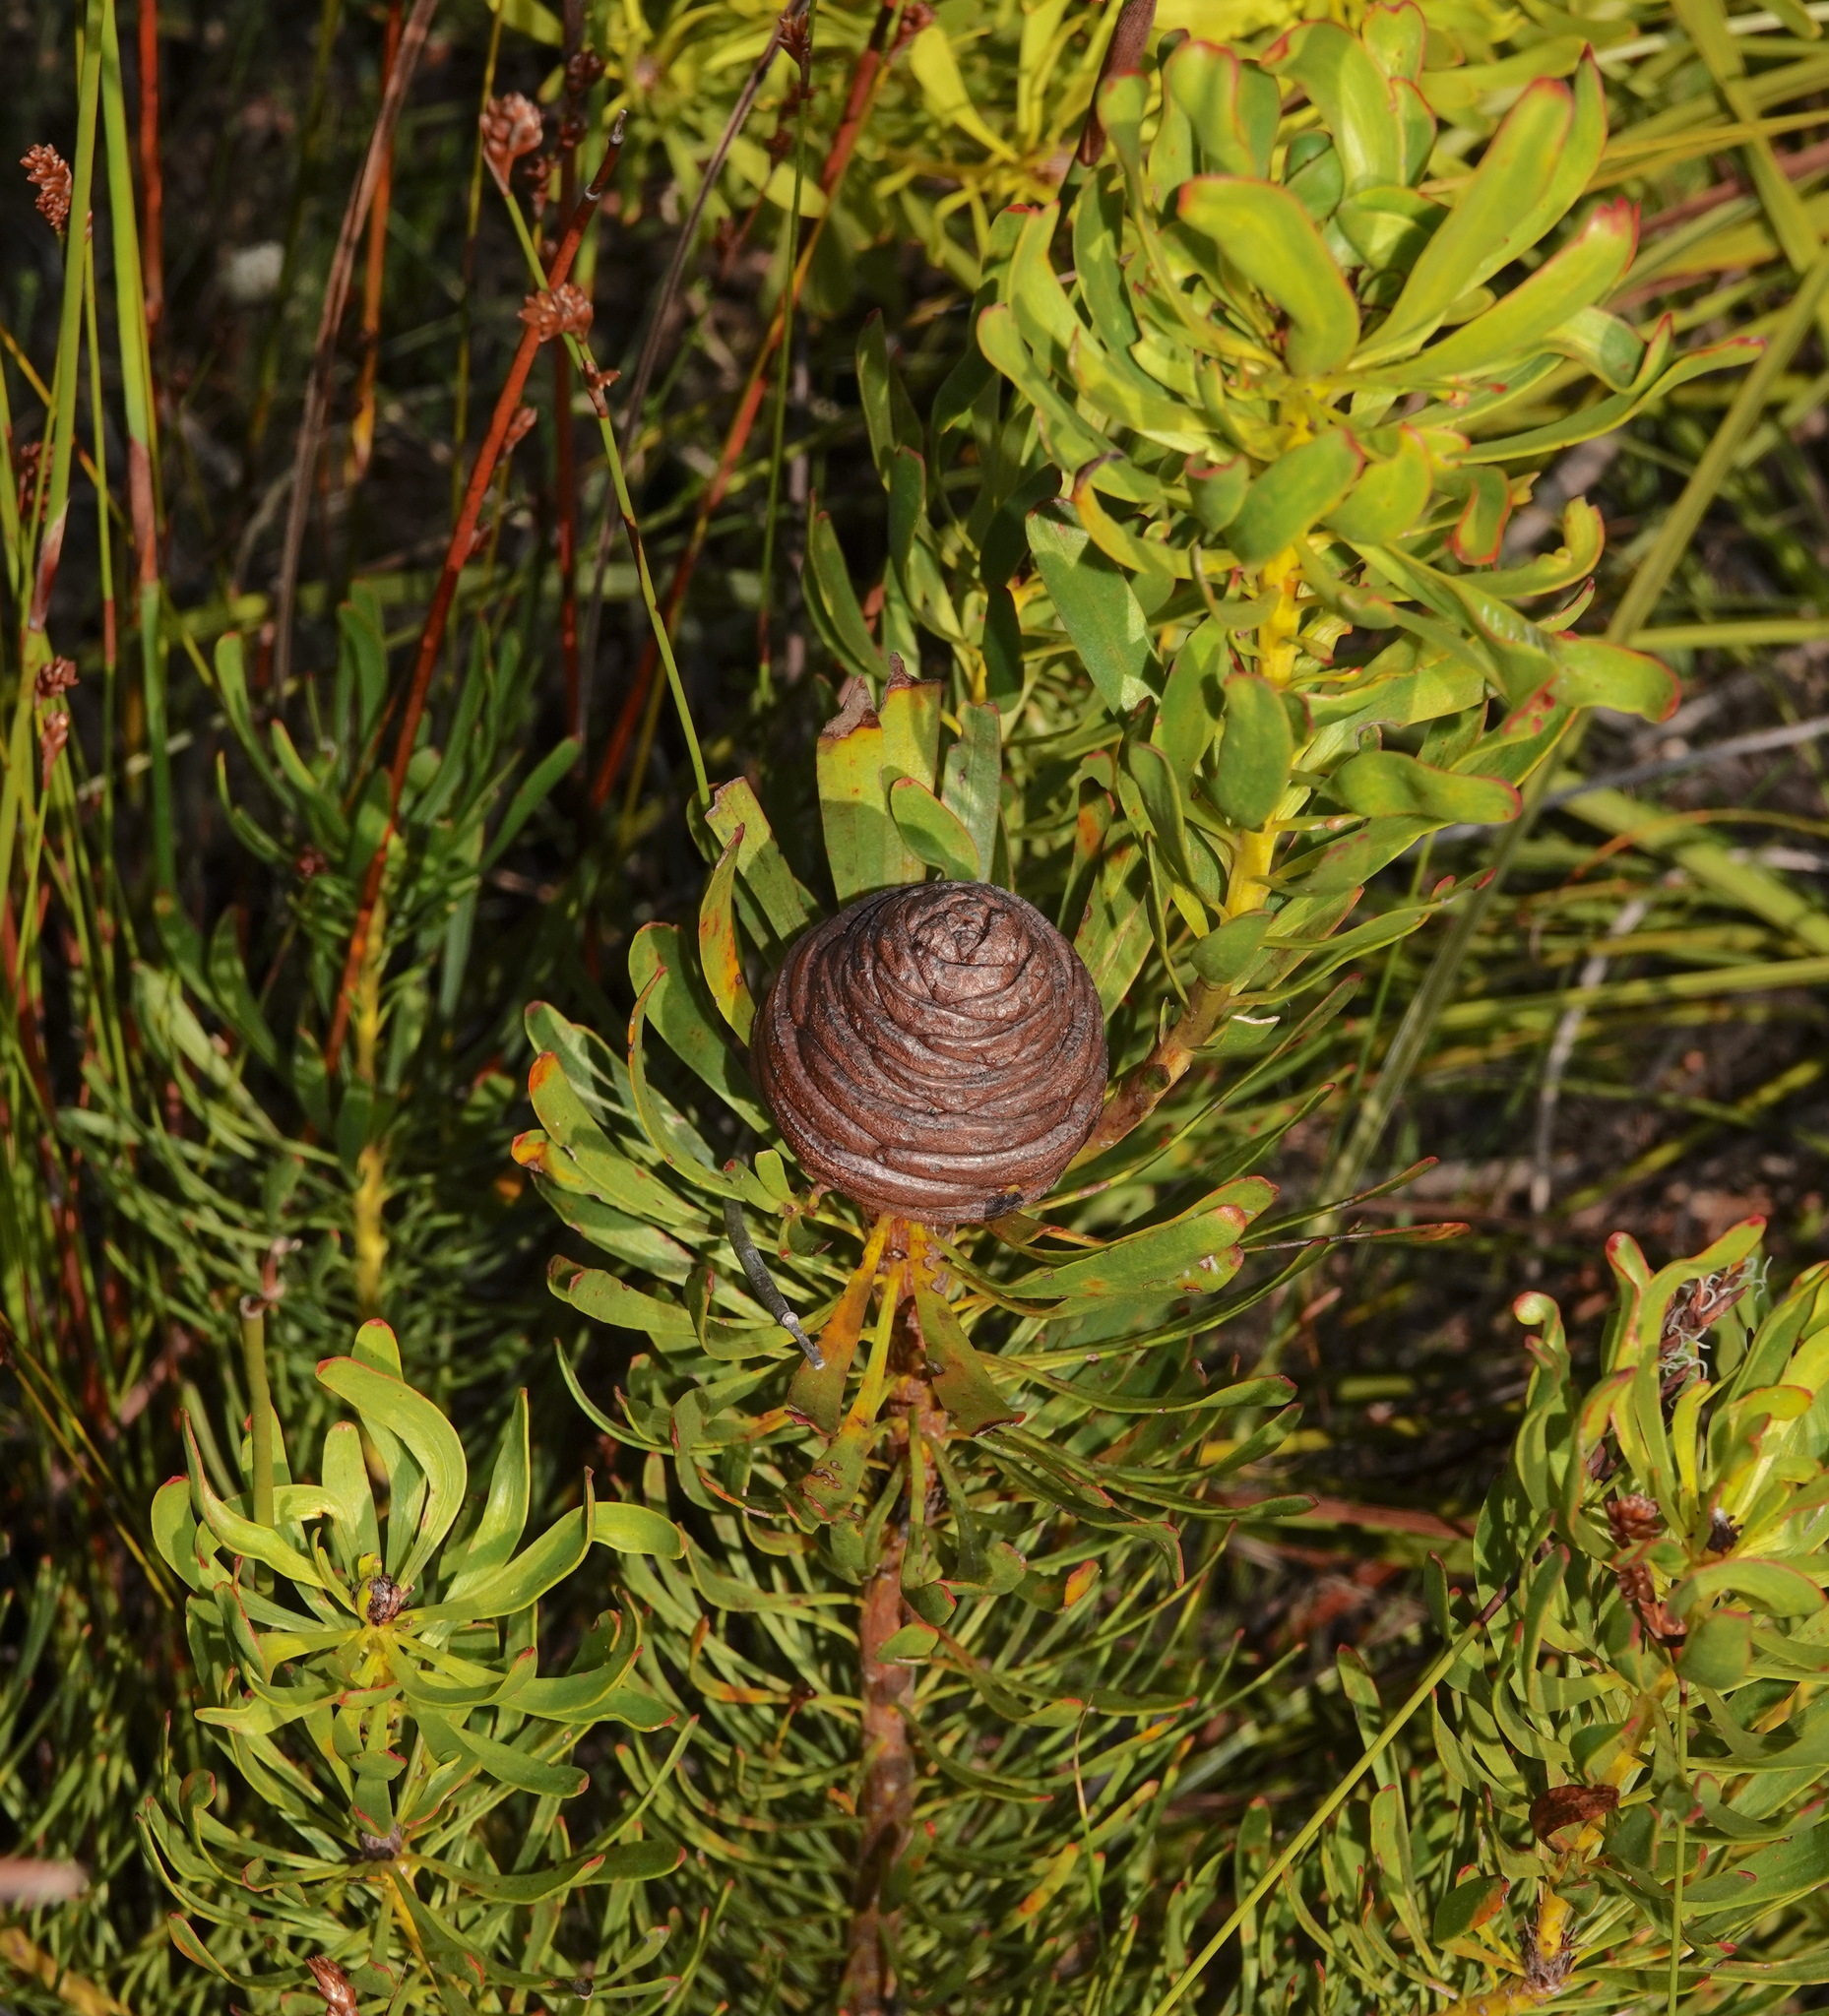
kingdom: Plantae
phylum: Tracheophyta
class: Magnoliopsida
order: Proteales
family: Proteaceae
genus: Leucadendron
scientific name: Leucadendron platyspermum
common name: Plate-seed conebush
